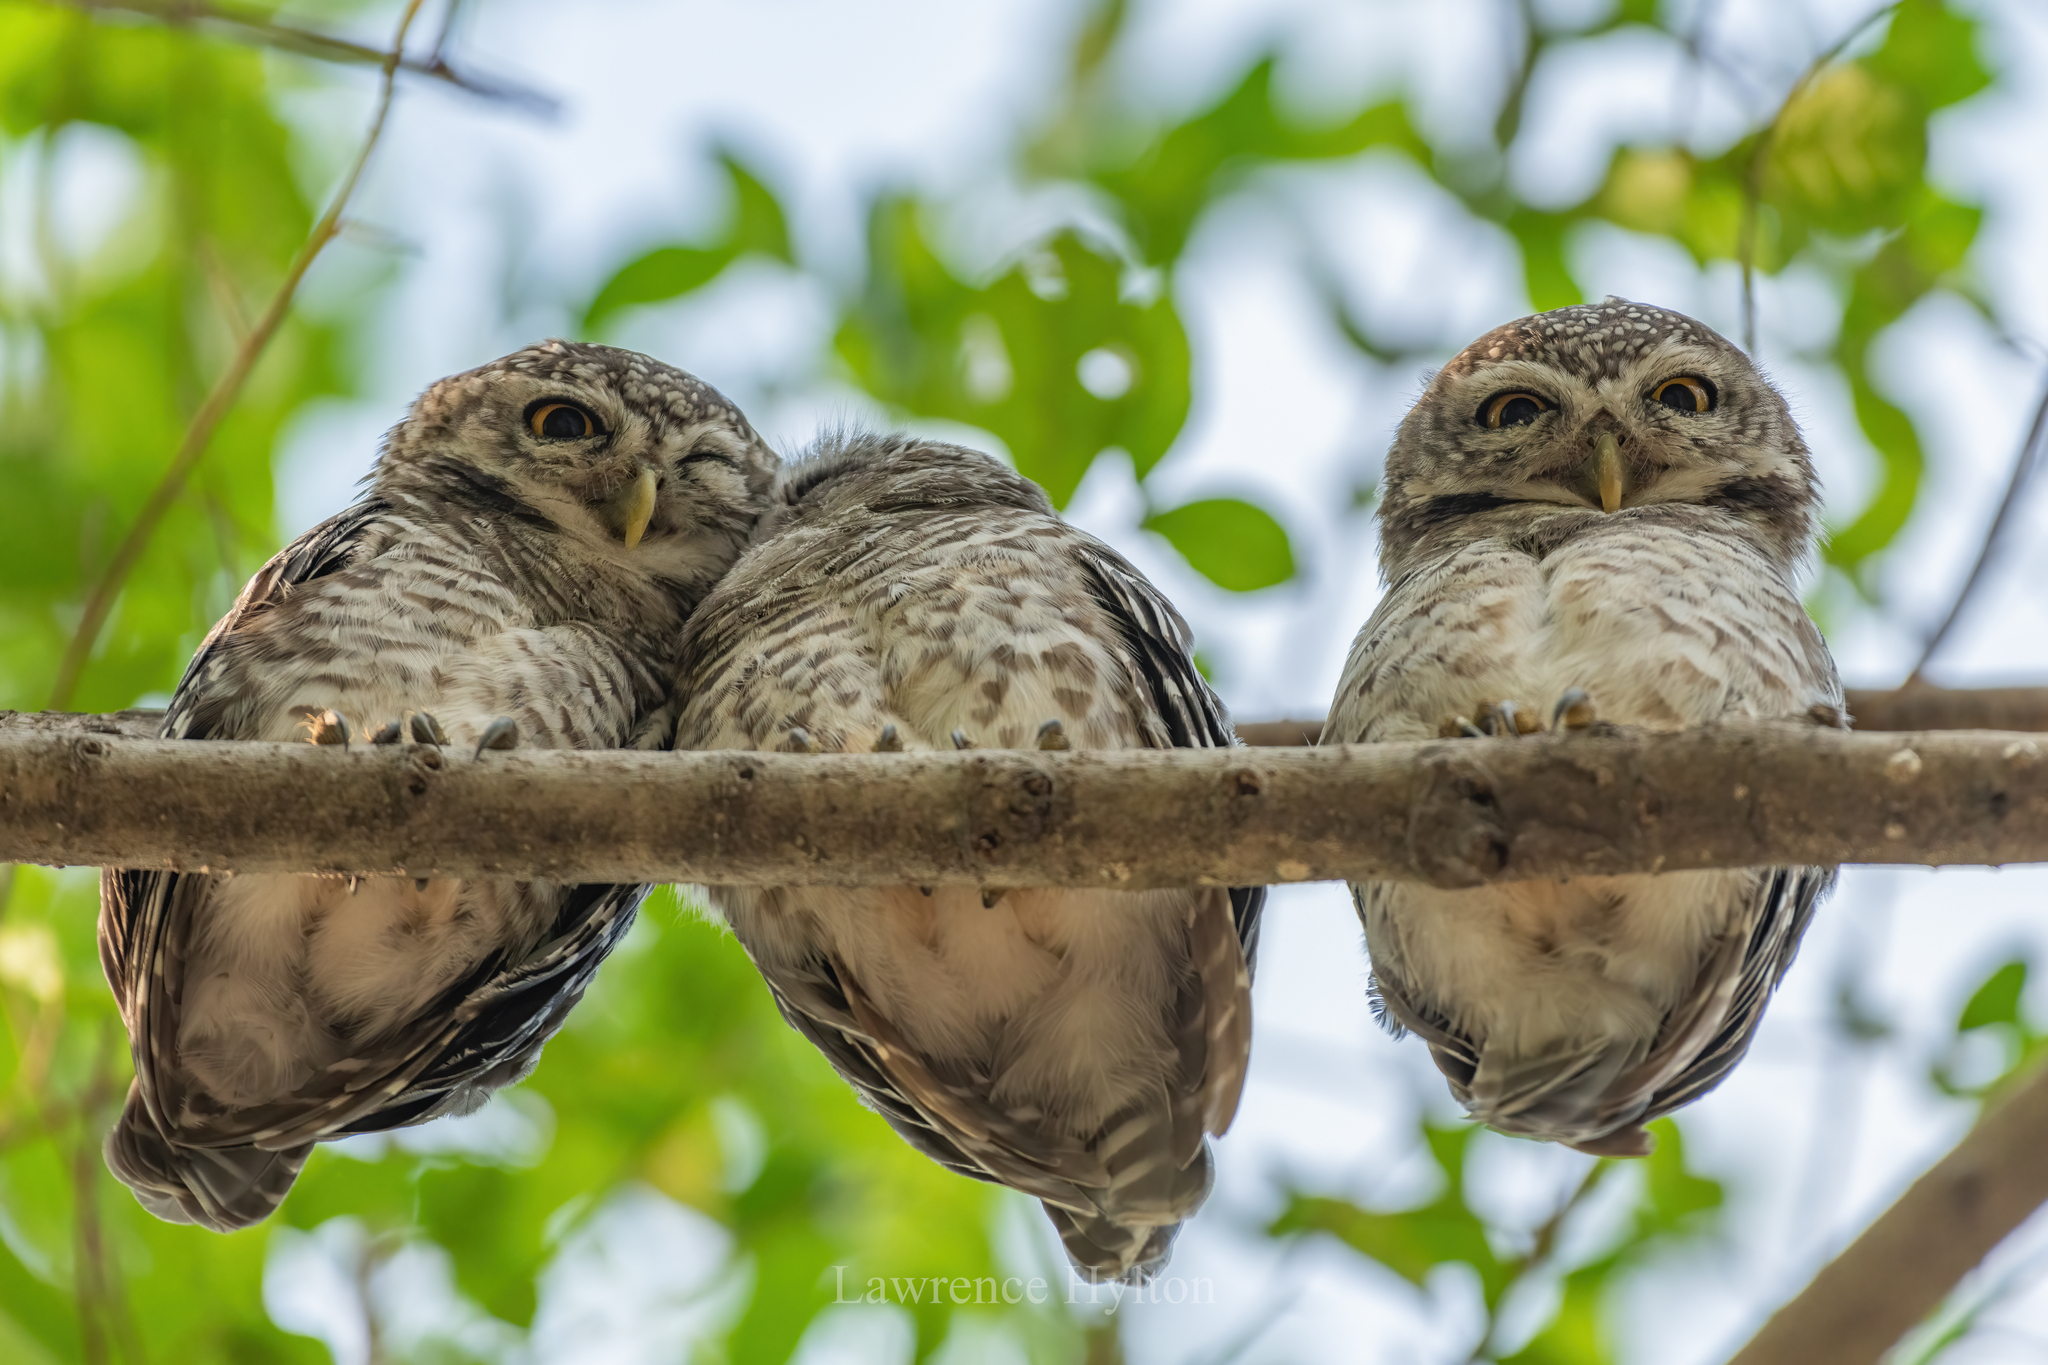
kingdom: Animalia
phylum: Chordata
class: Aves
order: Strigiformes
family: Strigidae
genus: Athene
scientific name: Athene brama
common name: Spotted owlet
